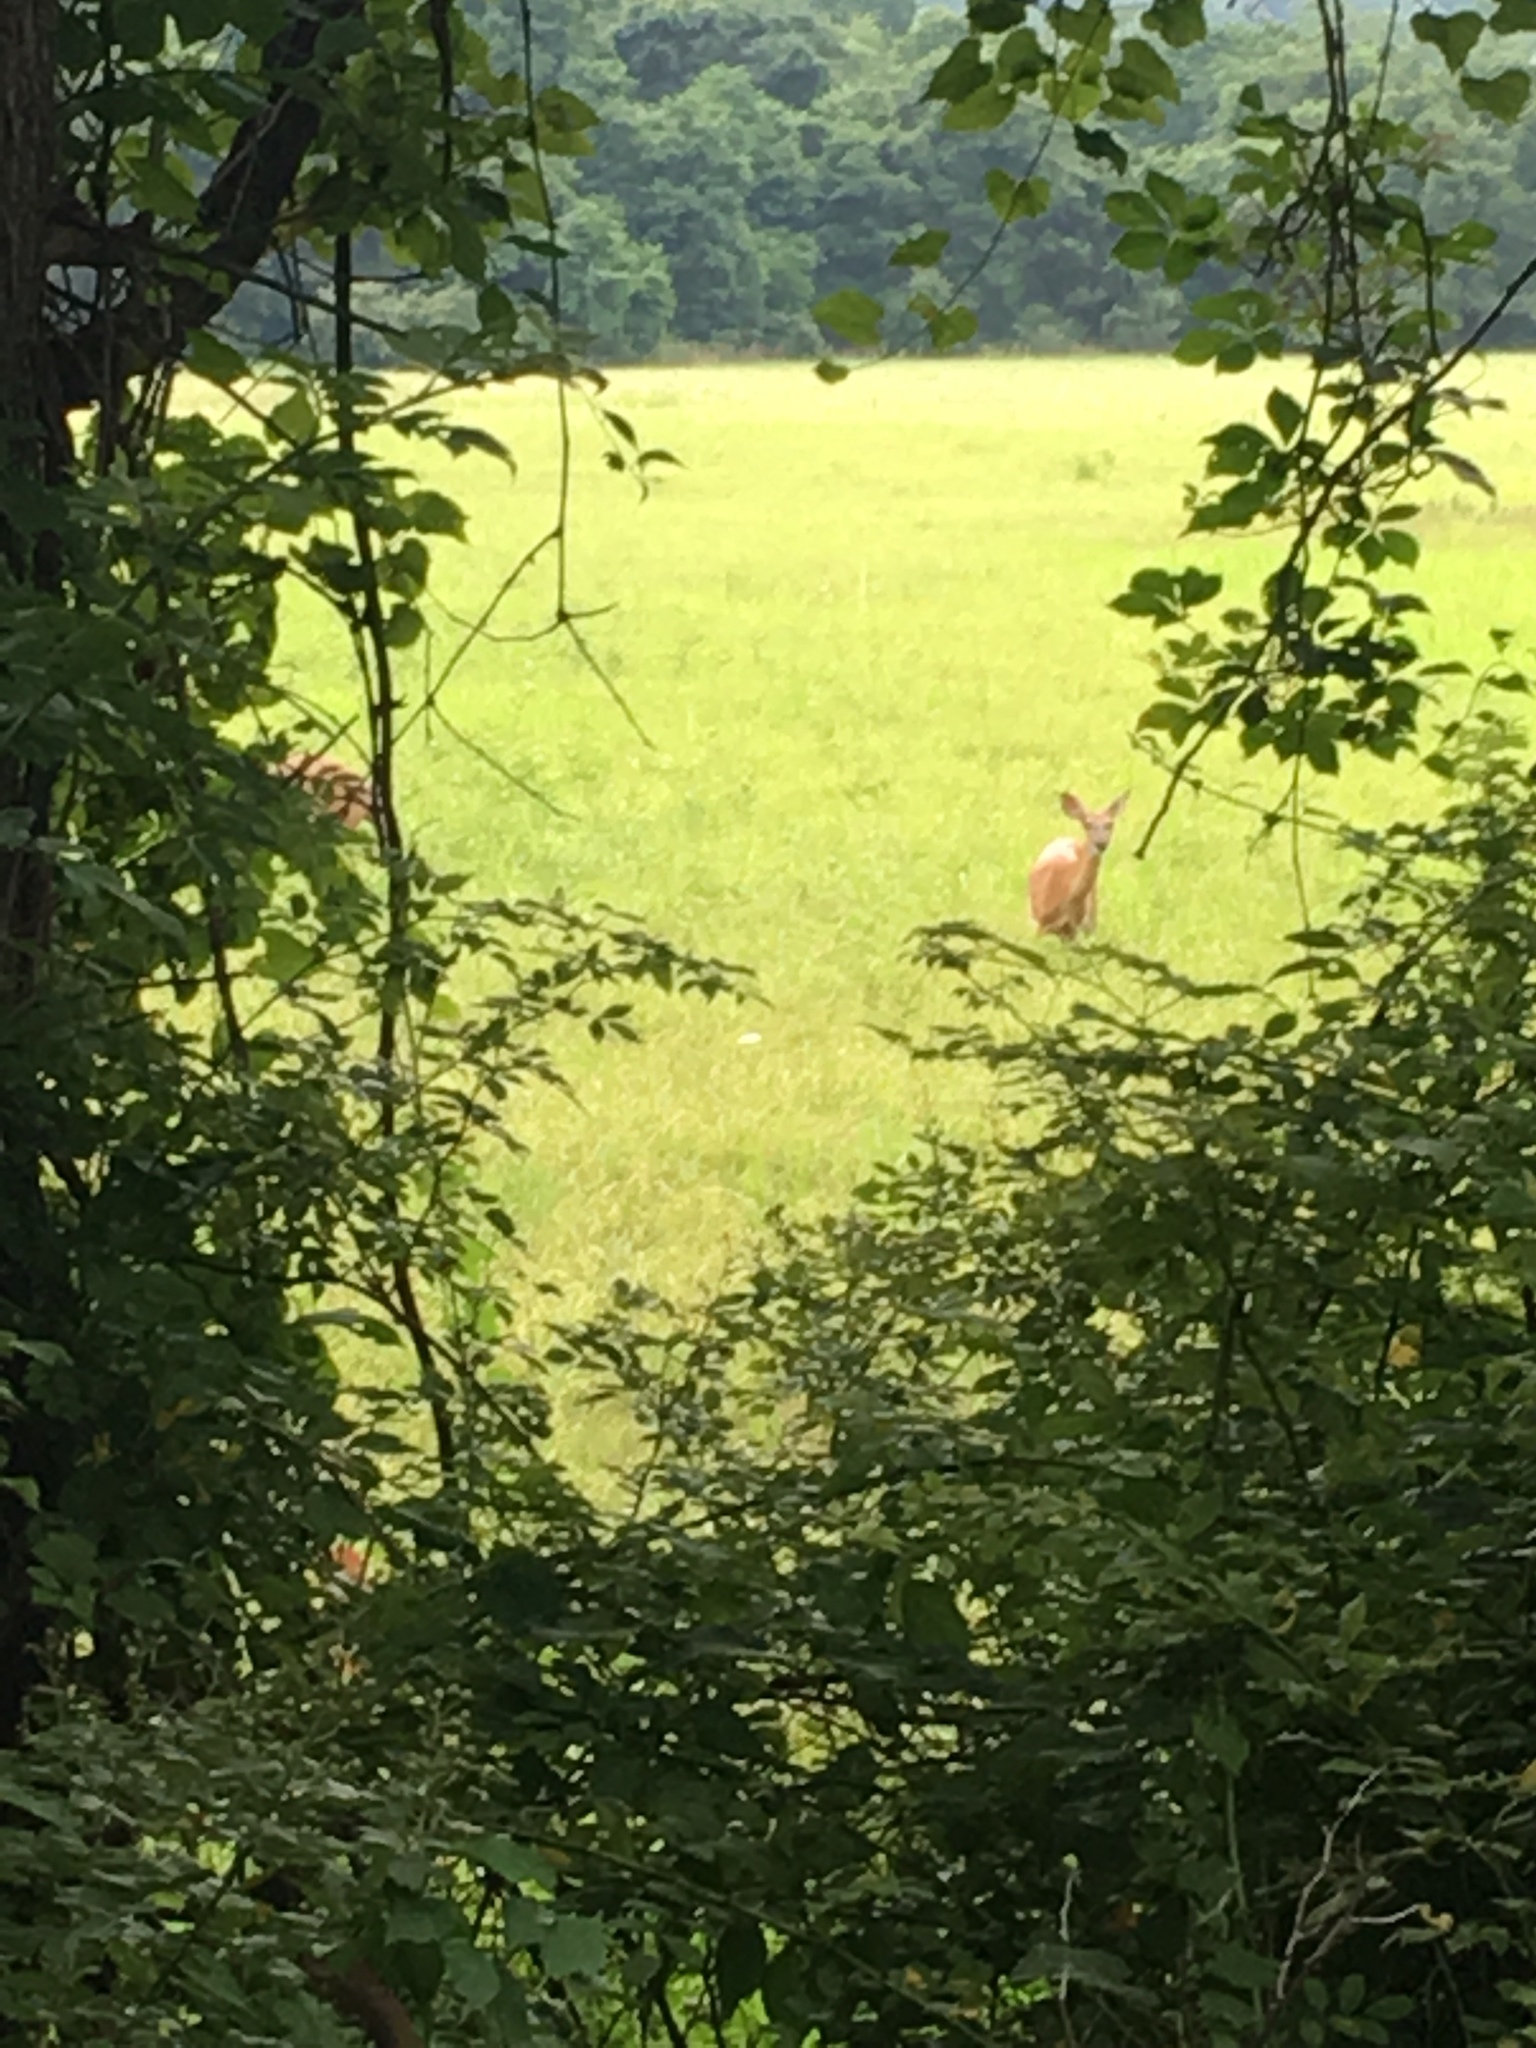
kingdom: Animalia
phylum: Chordata
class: Mammalia
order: Artiodactyla
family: Cervidae
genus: Odocoileus
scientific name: Odocoileus virginianus
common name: White-tailed deer
